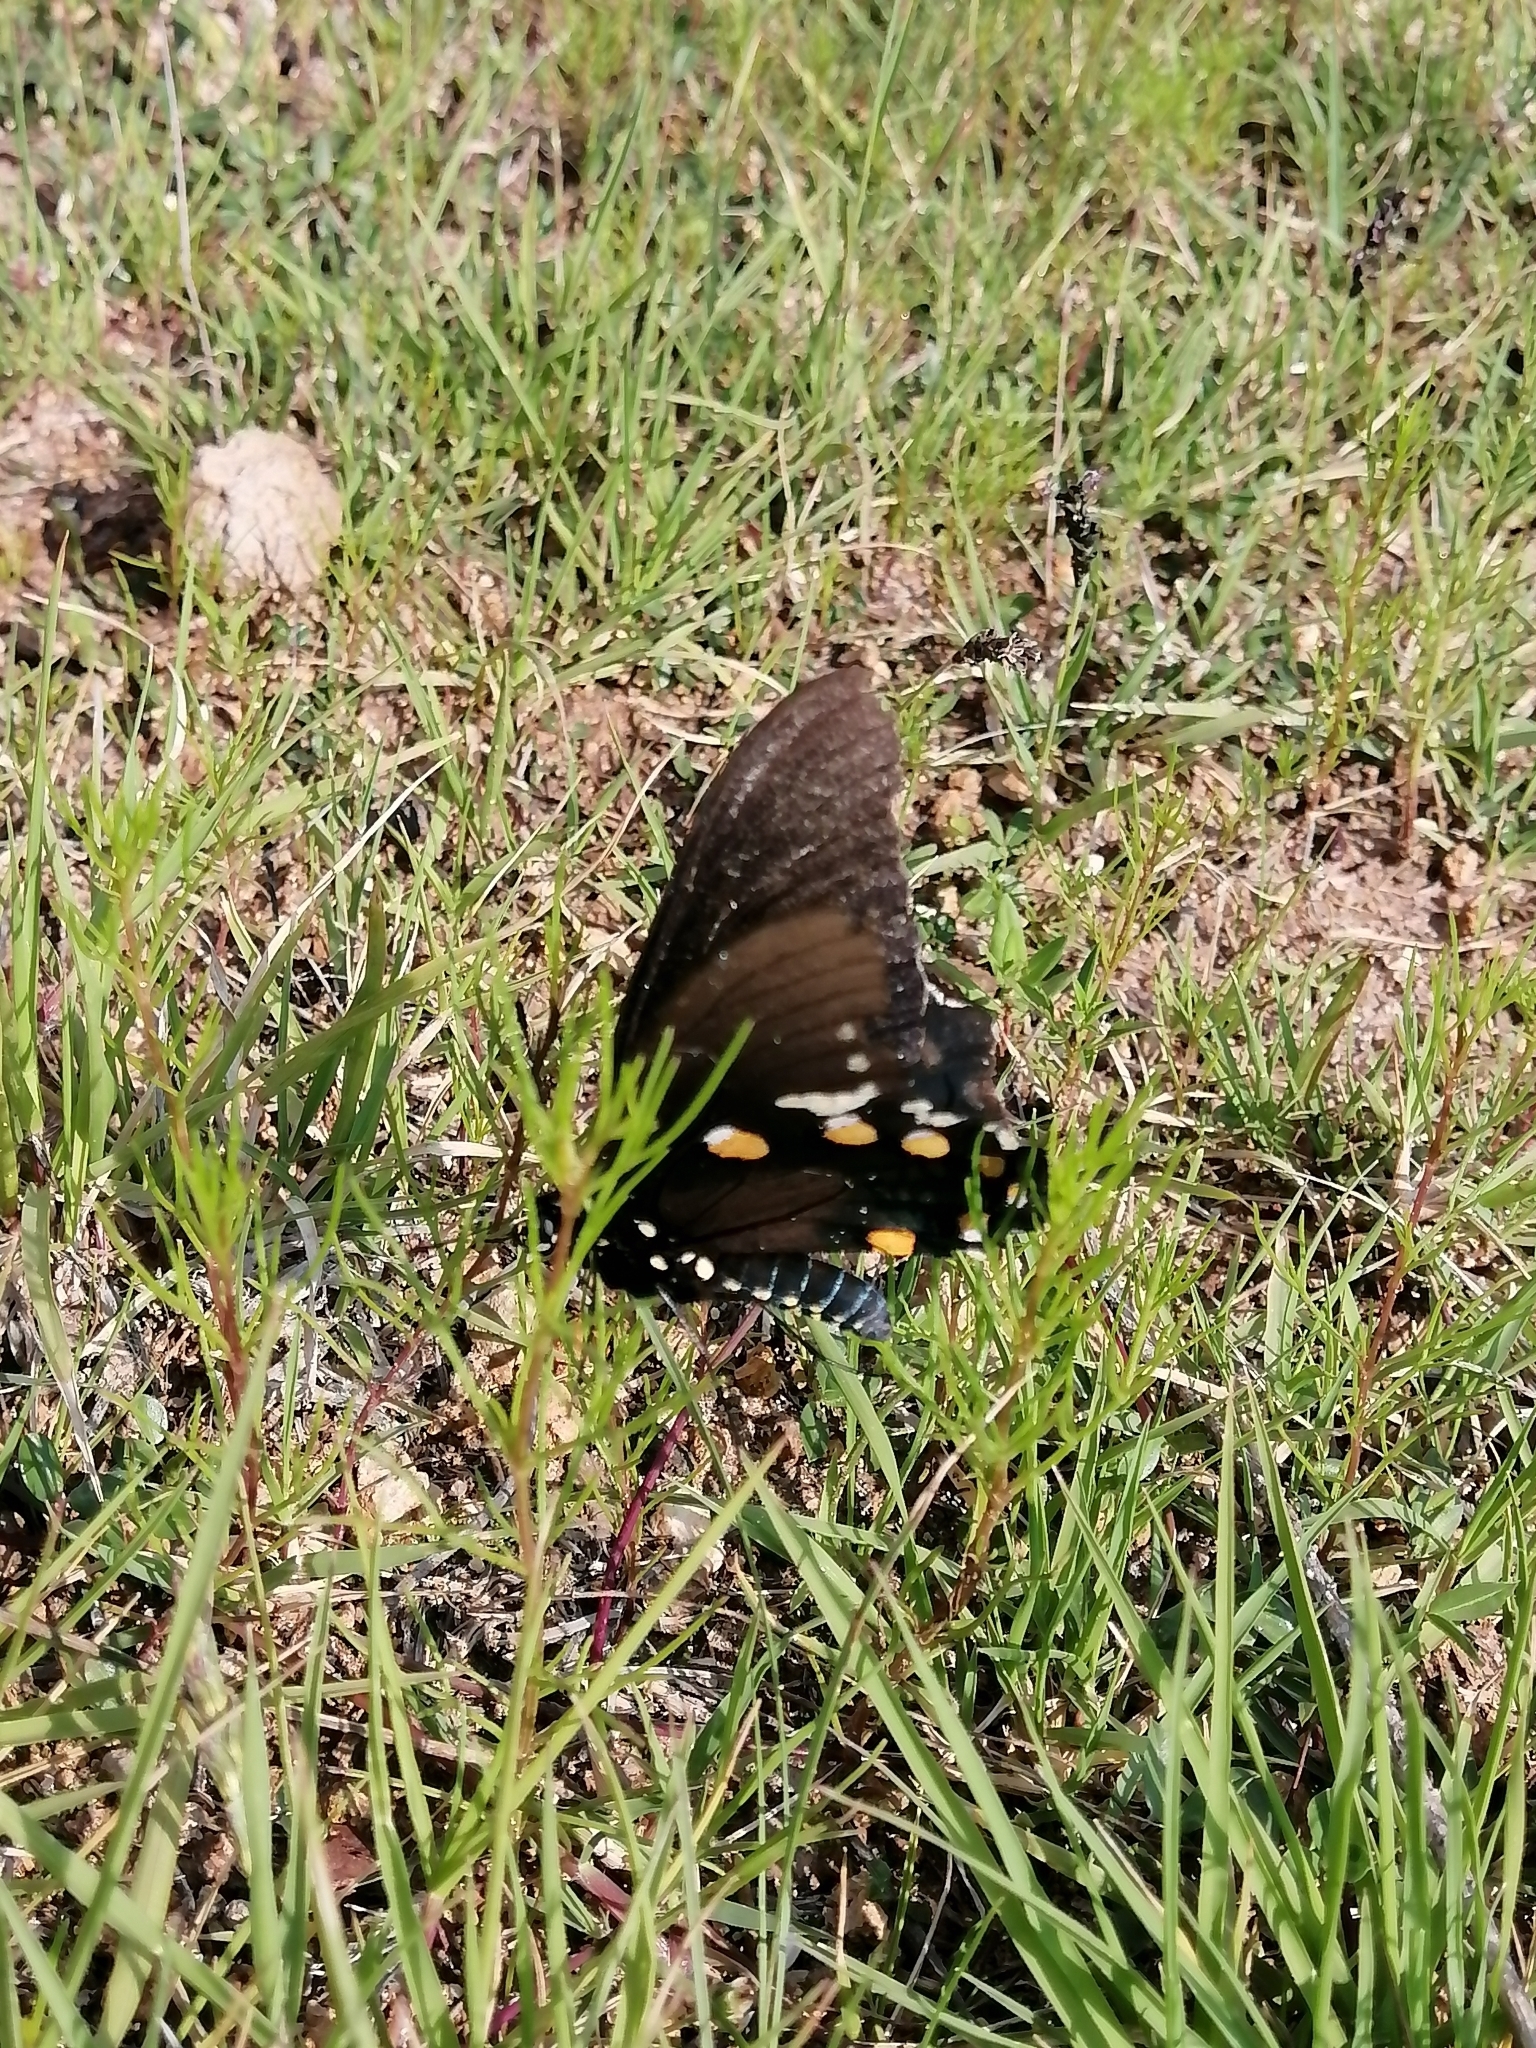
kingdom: Animalia
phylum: Arthropoda
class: Insecta
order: Lepidoptera
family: Papilionidae
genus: Battus
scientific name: Battus philenor
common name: Pipevine swallowtail
